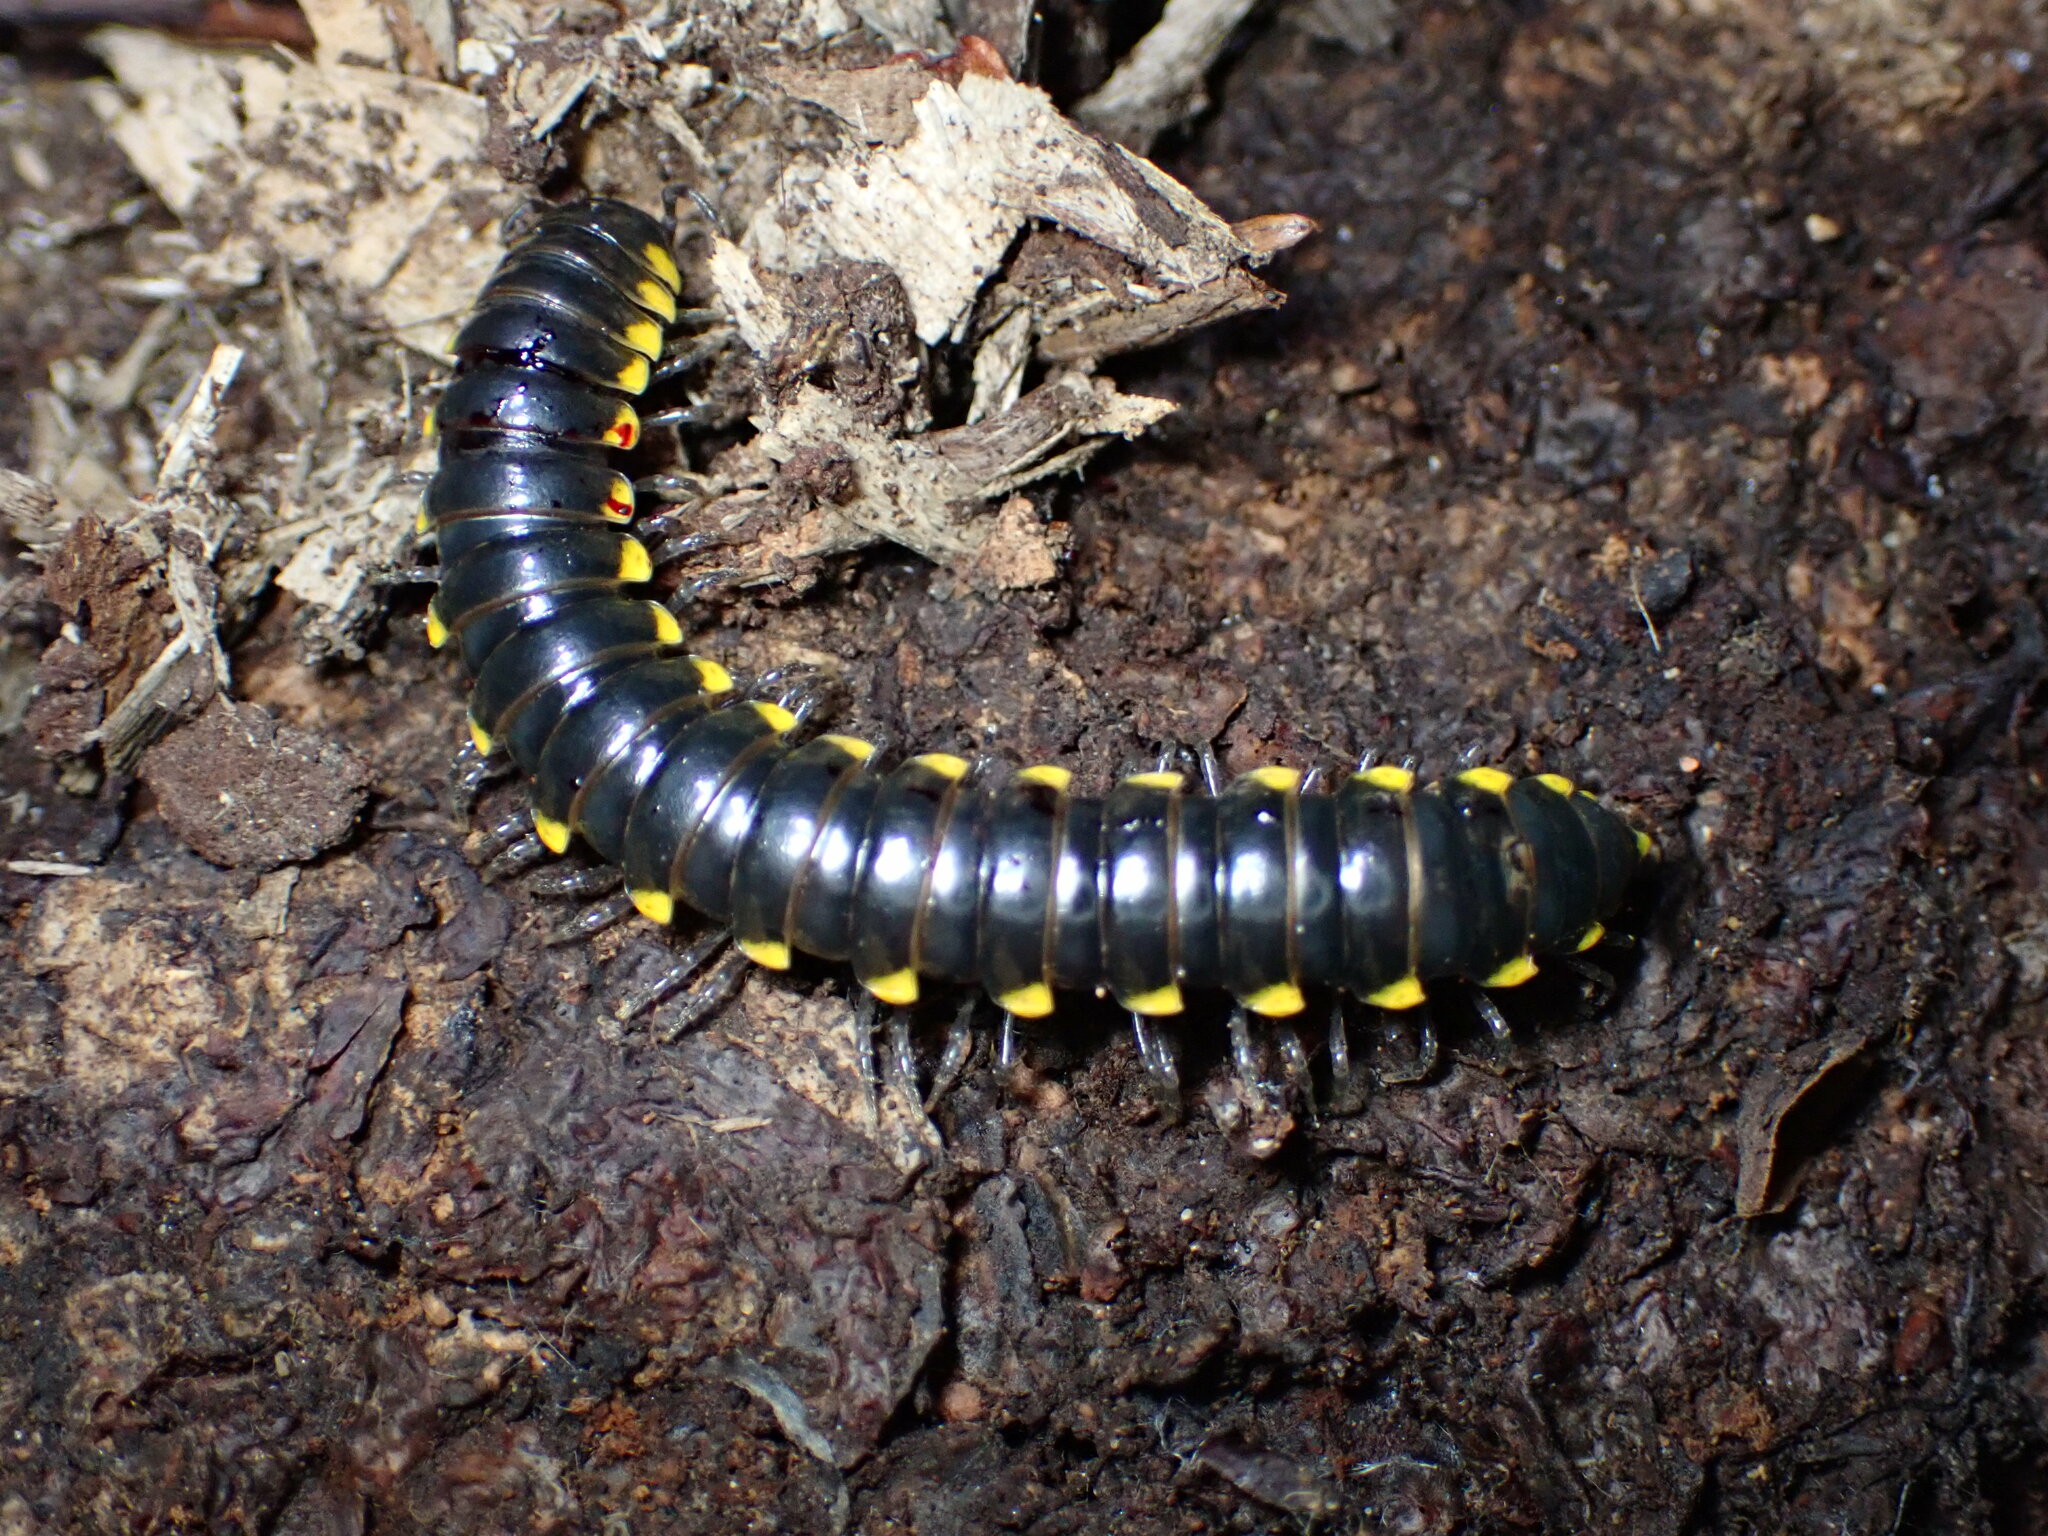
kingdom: Animalia
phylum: Arthropoda
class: Diplopoda
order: Polydesmida
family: Xystodesmidae
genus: Harpaphe
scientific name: Harpaphe haydeniana
